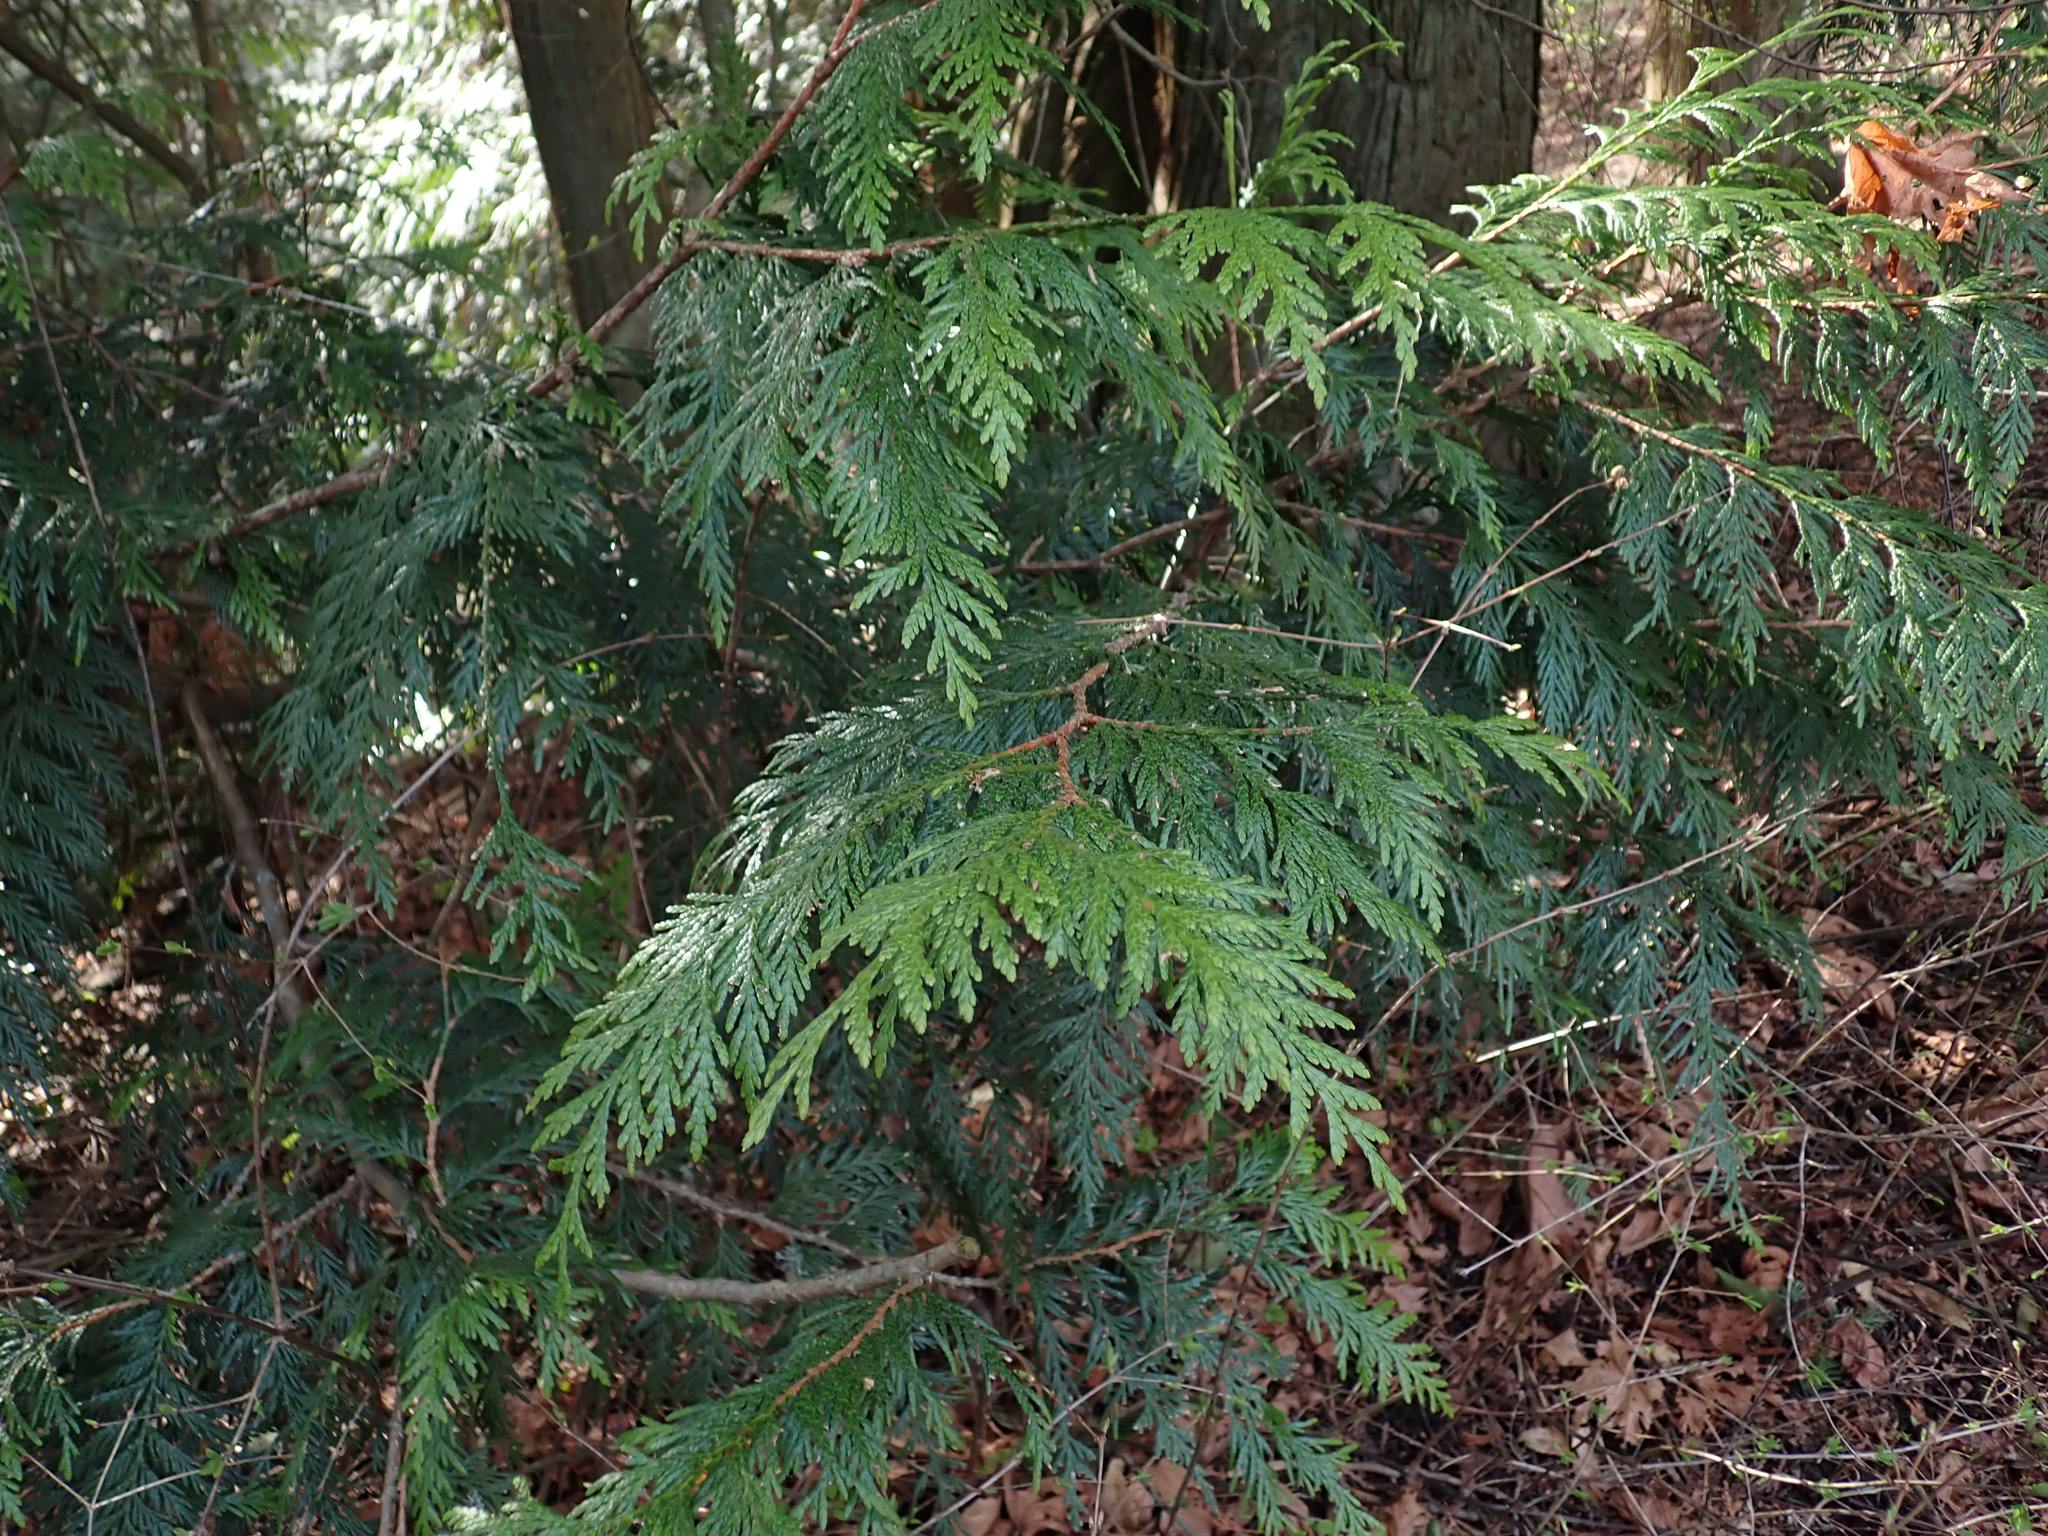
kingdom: Plantae
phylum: Tracheophyta
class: Pinopsida
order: Pinales
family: Cupressaceae
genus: Thuja
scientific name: Thuja plicata
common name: Western red-cedar
